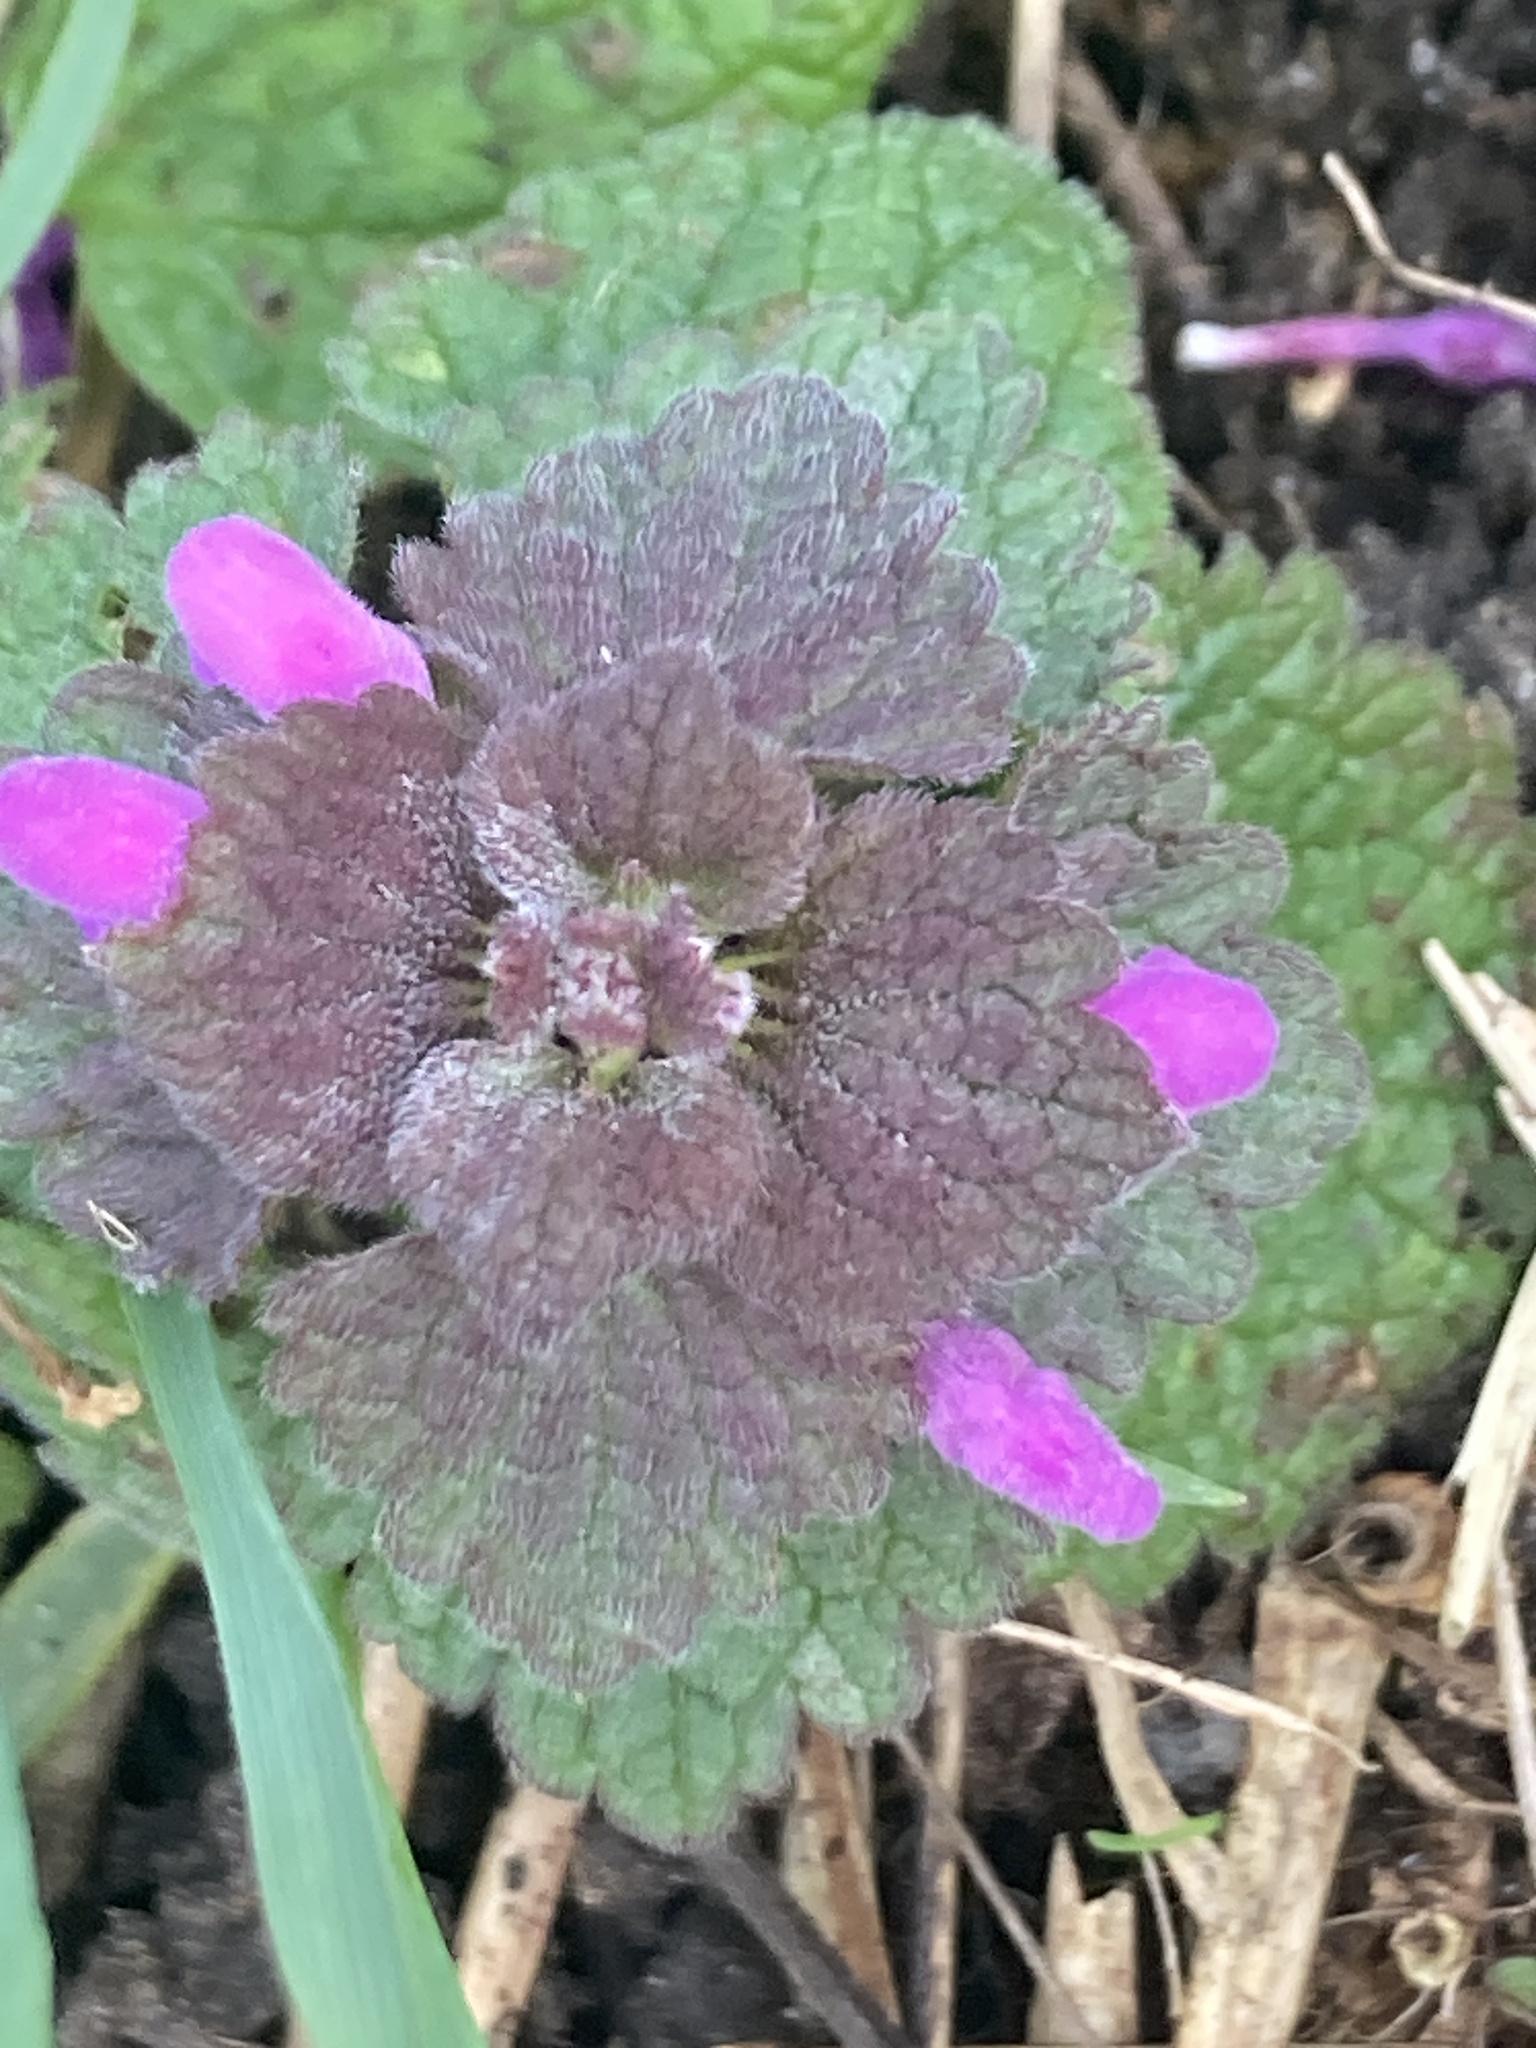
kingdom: Plantae
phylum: Tracheophyta
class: Magnoliopsida
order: Lamiales
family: Lamiaceae
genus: Lamium
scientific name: Lamium purpureum
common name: Red dead-nettle
